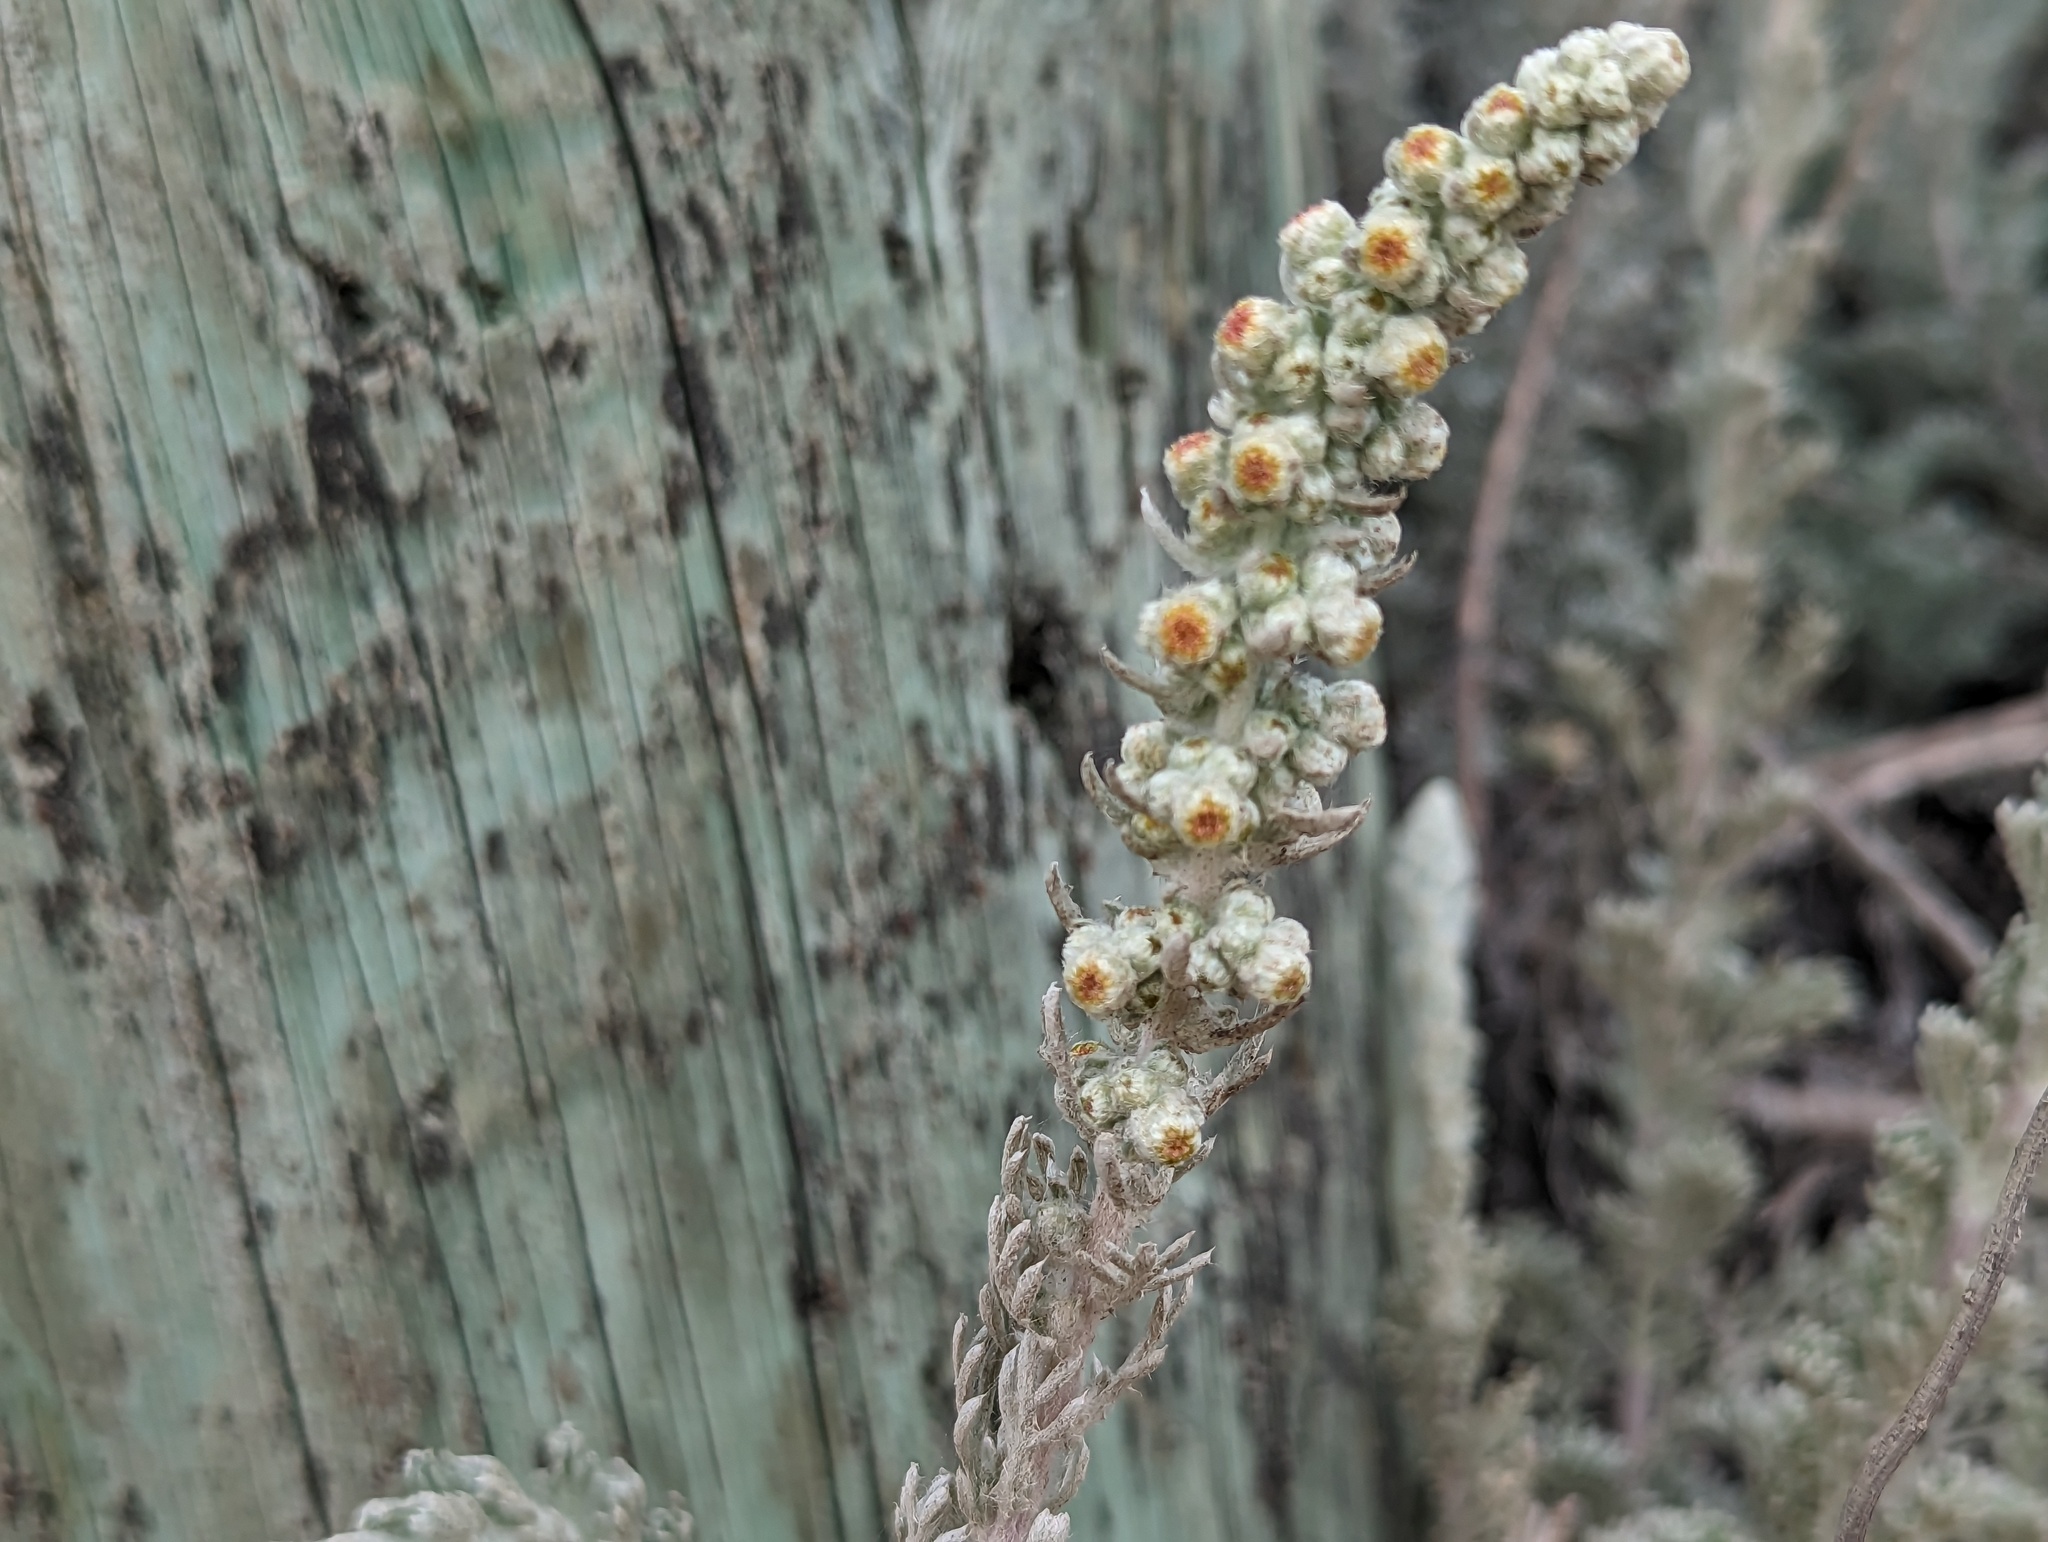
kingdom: Plantae
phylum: Tracheophyta
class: Magnoliopsida
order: Asterales
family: Asteraceae
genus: Artemisia
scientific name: Artemisia pycnocephala
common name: Coastal sagewort
